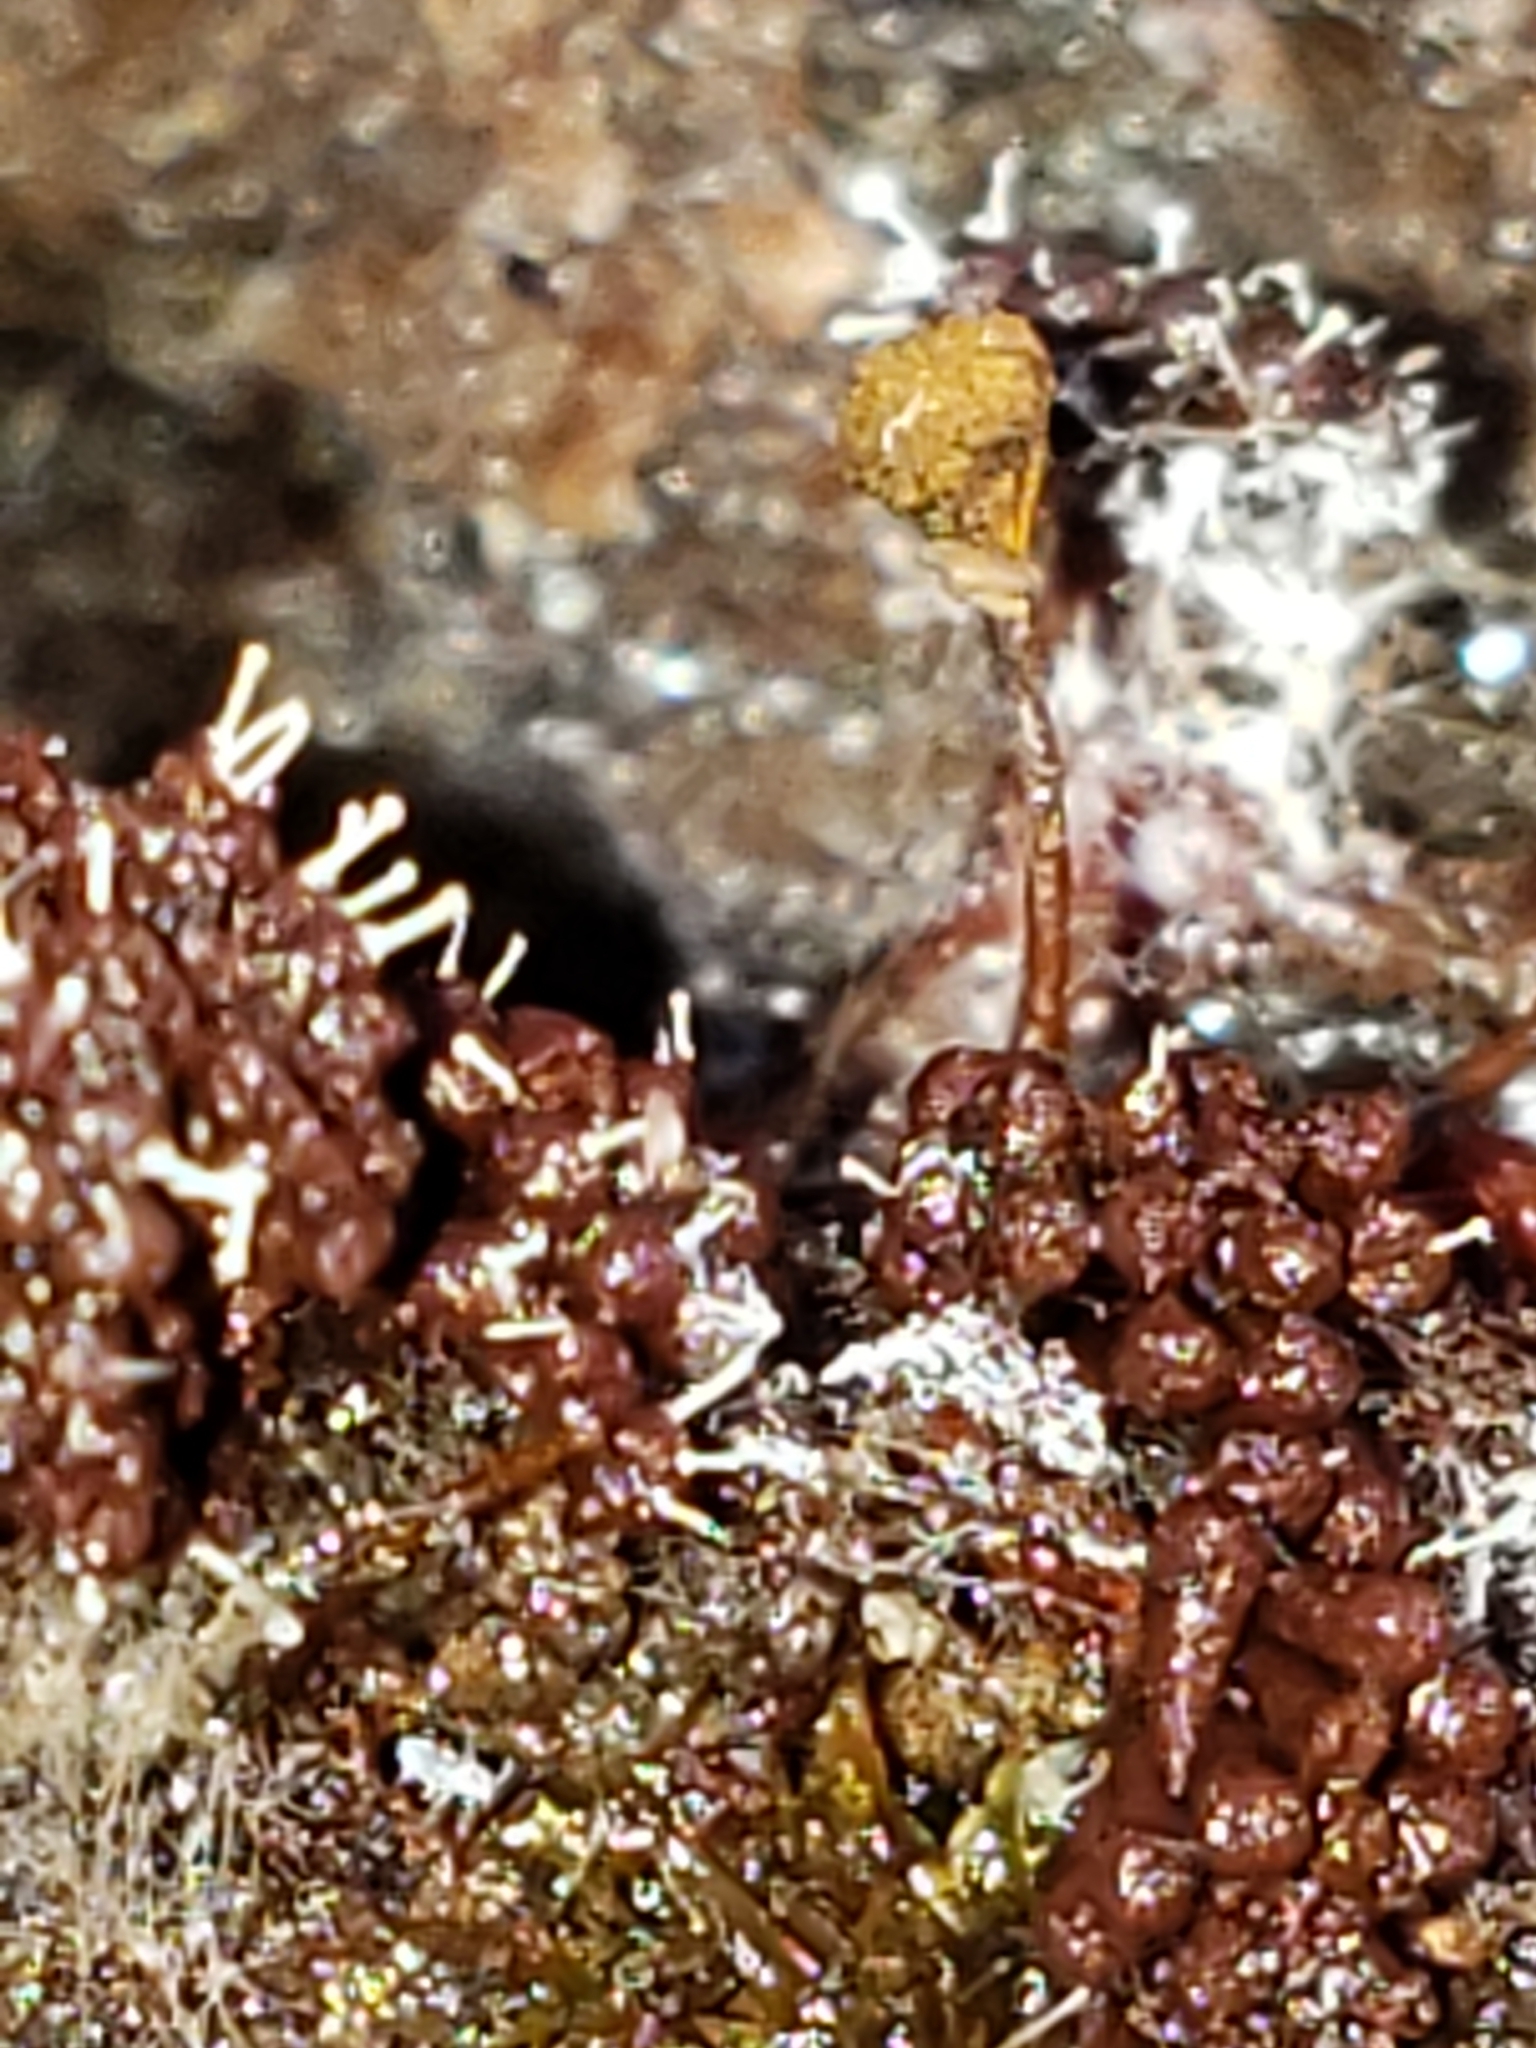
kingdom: Fungi
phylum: Ascomycota
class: Sordariomycetes
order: Hypocreales
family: Ophiocordycipitaceae
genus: Polycephalomyces
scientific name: Polycephalomyces tomentosus
